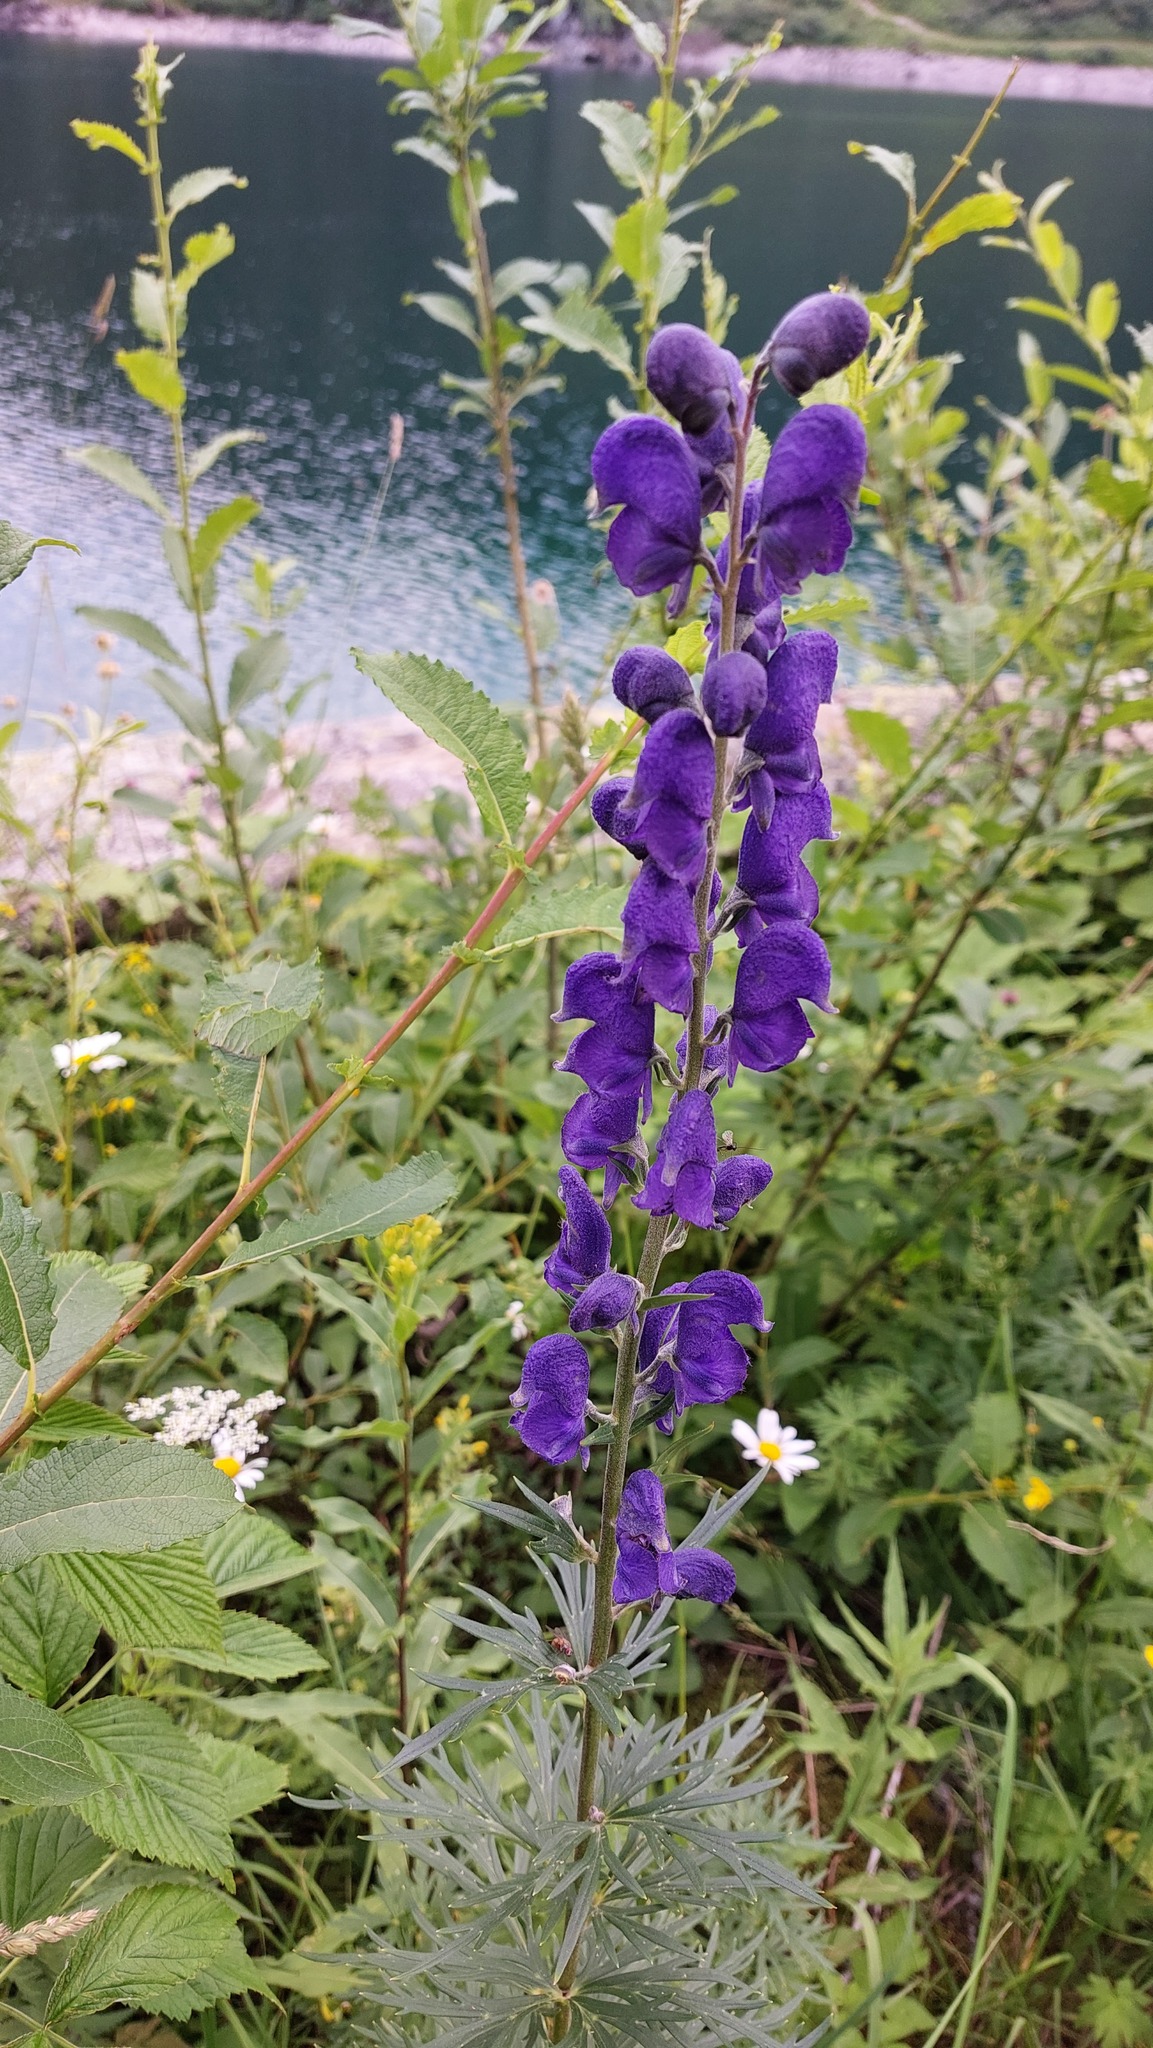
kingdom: Plantae
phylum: Tracheophyta
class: Magnoliopsida
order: Ranunculales
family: Ranunculaceae
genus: Aconitum
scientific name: Aconitum napellus
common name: Garden monkshood
